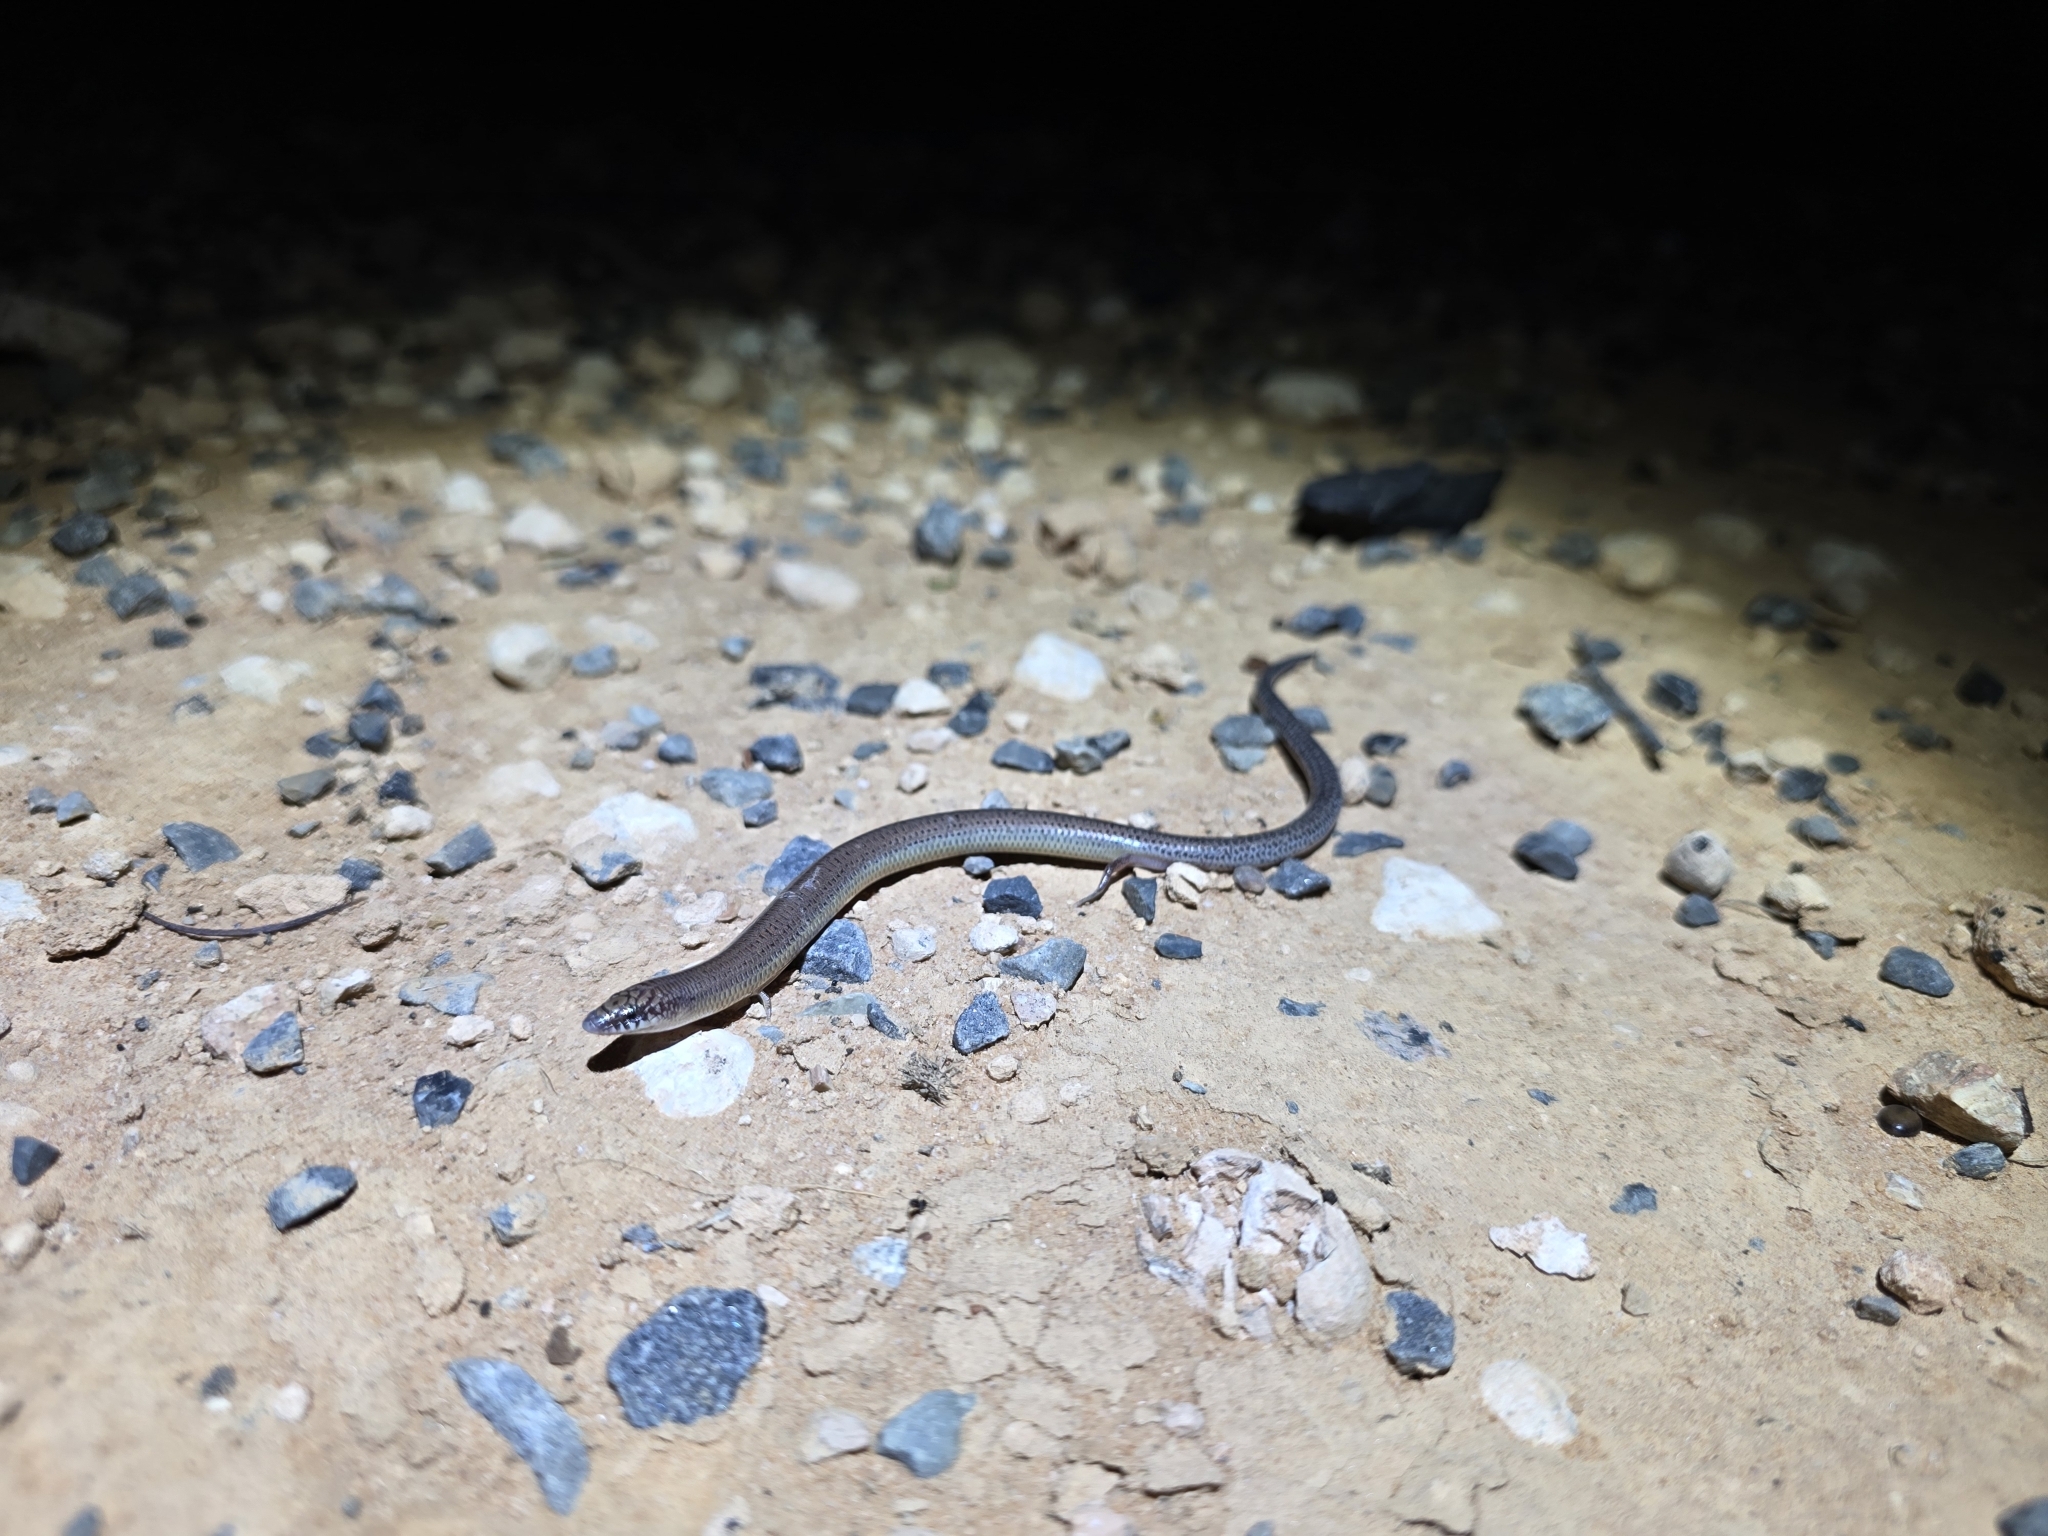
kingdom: Animalia
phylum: Chordata
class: Squamata
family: Scincidae
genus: Lerista
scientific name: Lerista punctatovittata
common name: Eastern robust slider
